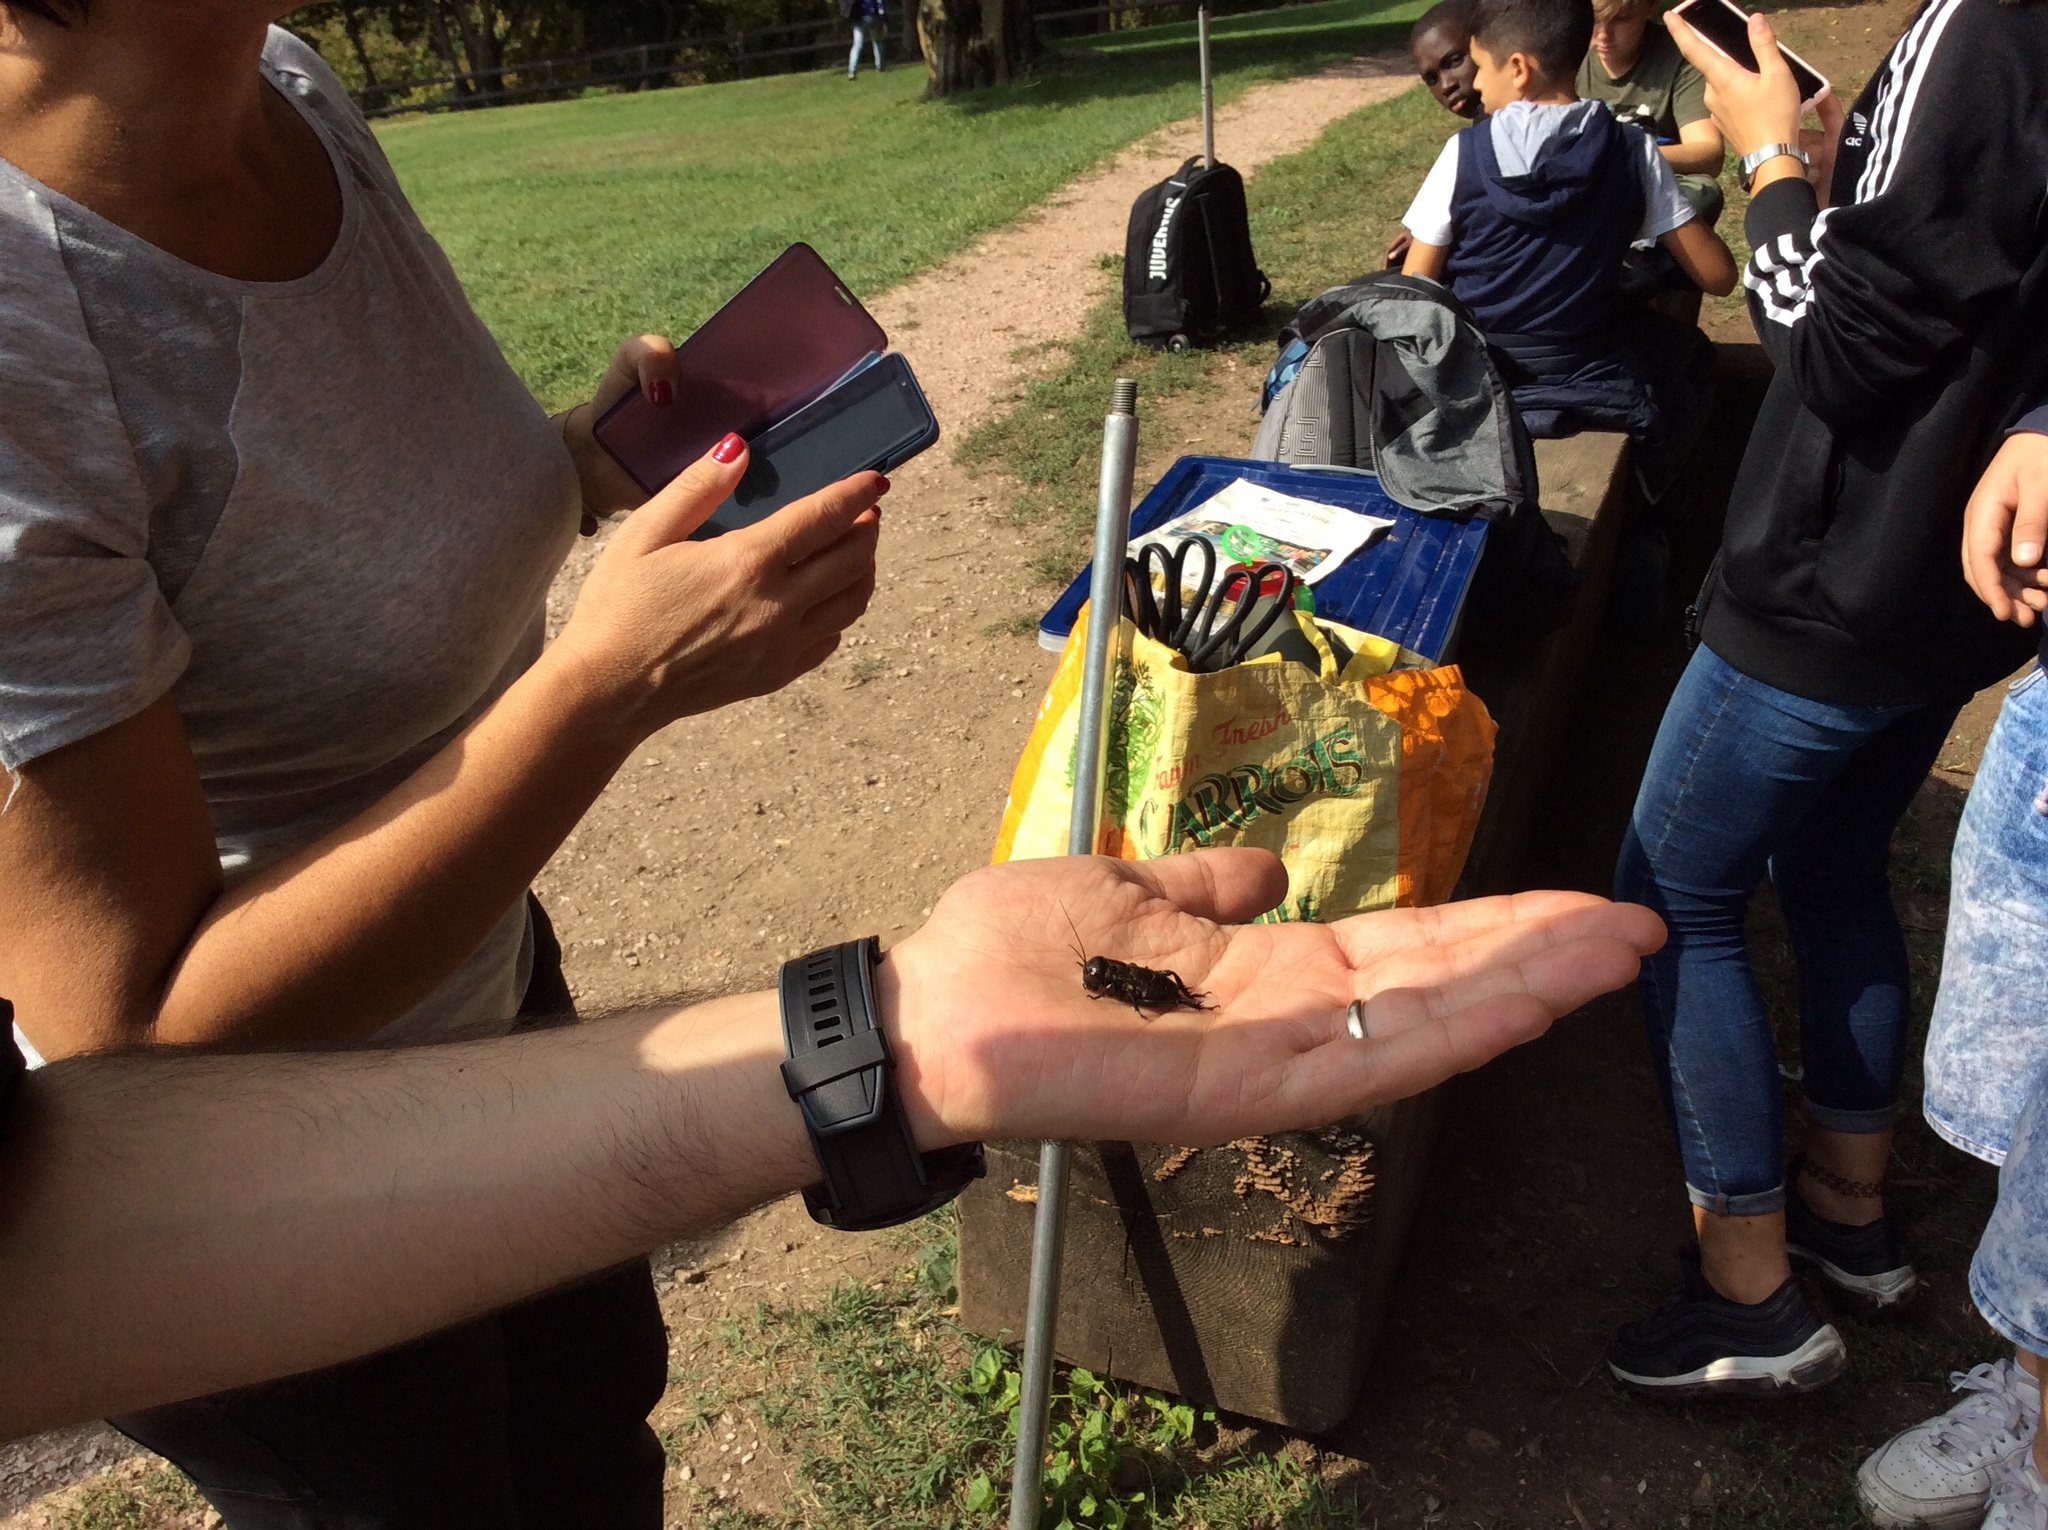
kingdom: Animalia
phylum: Arthropoda
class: Insecta
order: Orthoptera
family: Gryllidae
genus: Gryllus
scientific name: Gryllus campestris
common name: Field cricket
